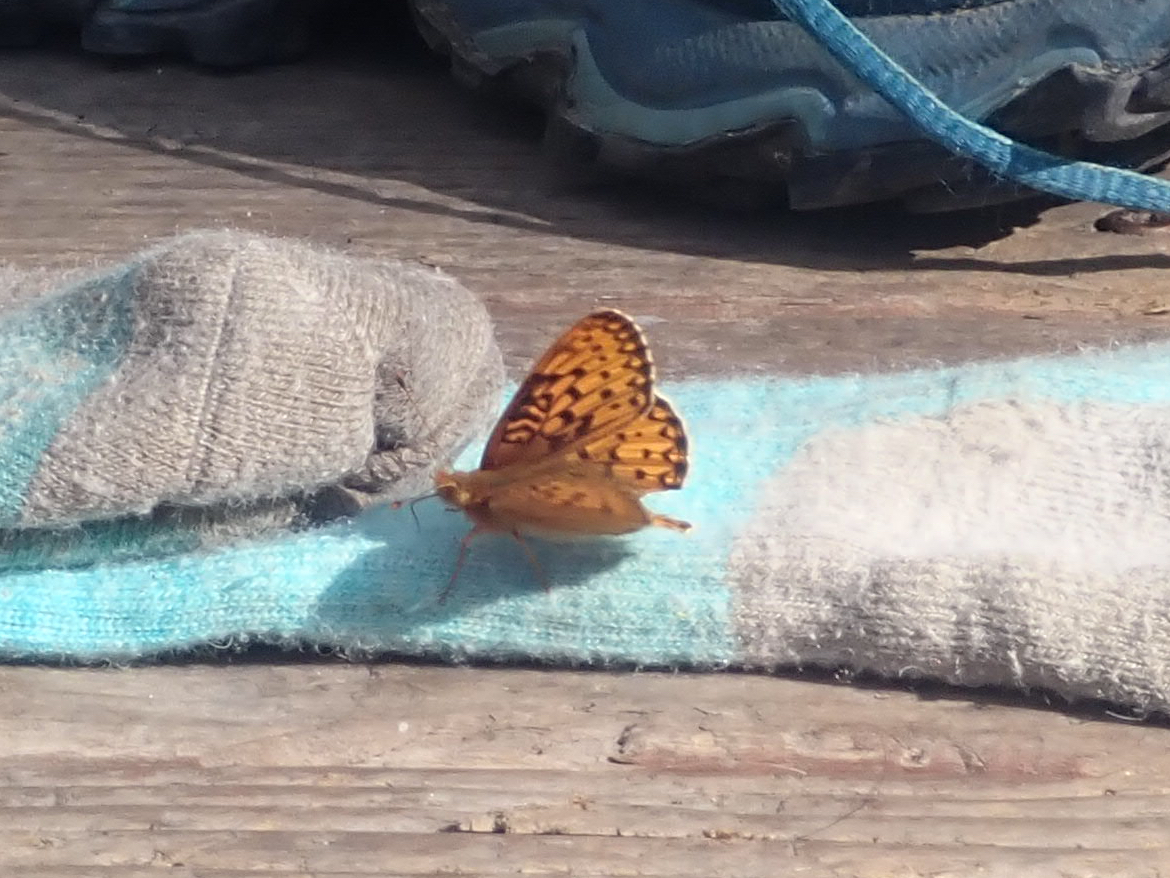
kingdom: Animalia
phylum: Arthropoda
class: Insecta
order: Lepidoptera
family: Nymphalidae
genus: Speyeria
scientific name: Speyeria mormonia
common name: Mormon fritillary
